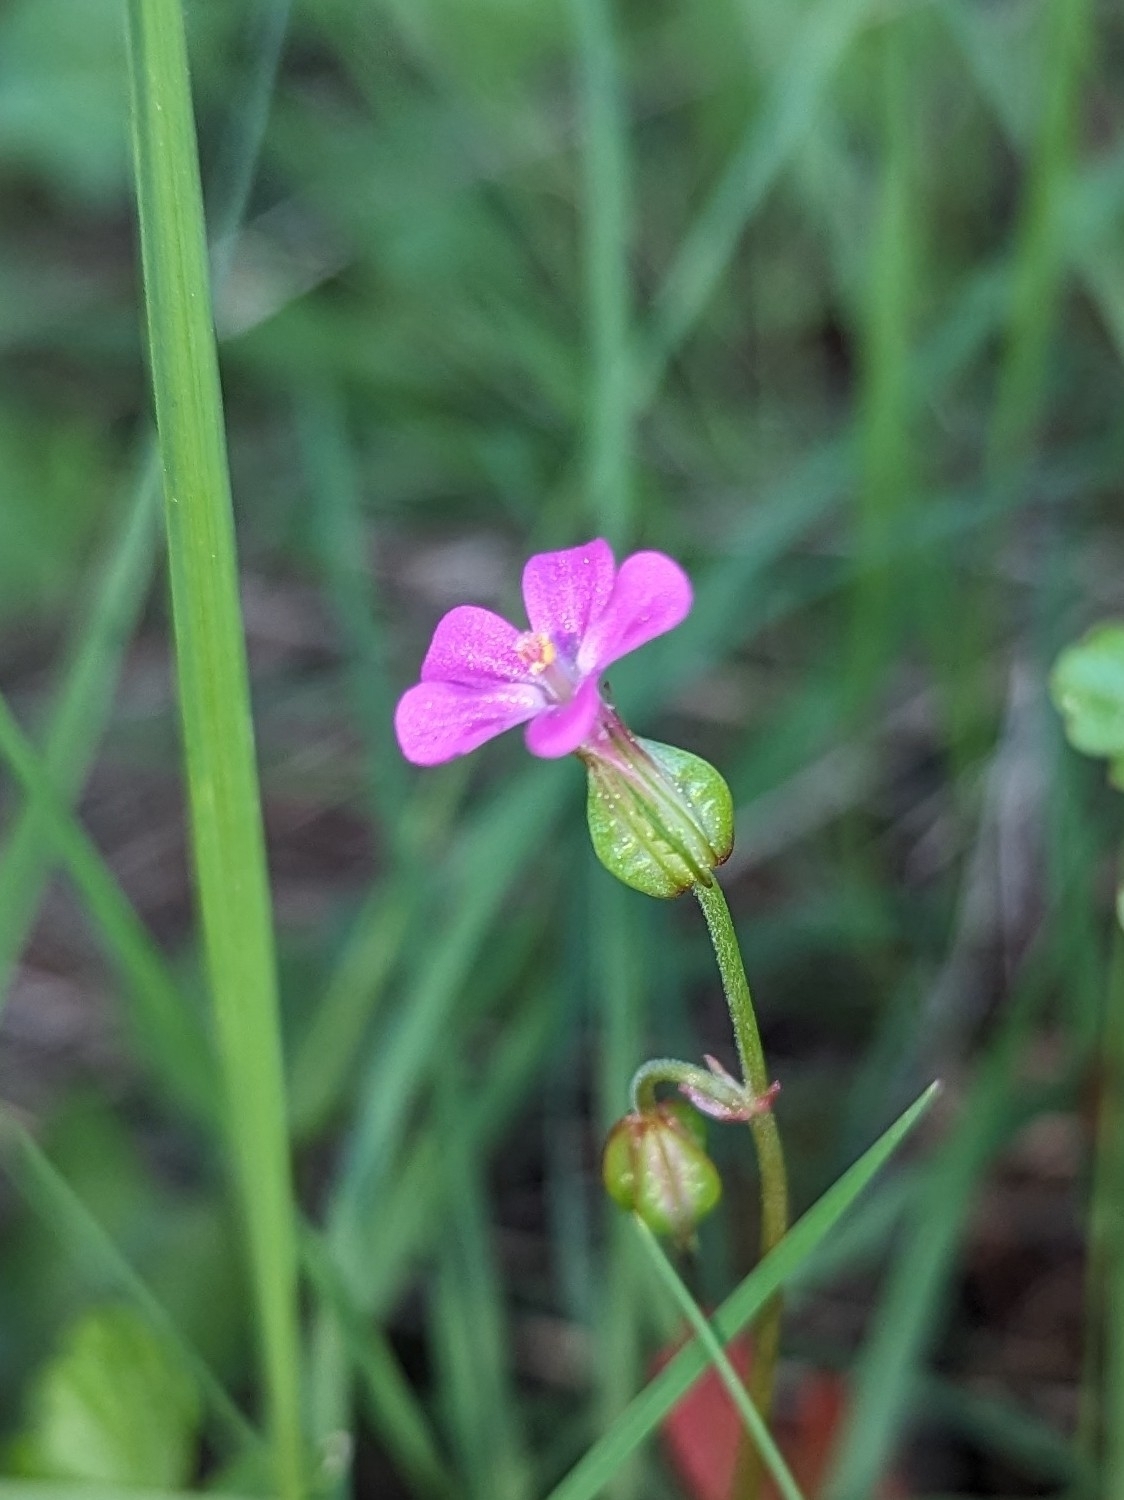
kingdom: Plantae
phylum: Tracheophyta
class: Magnoliopsida
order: Geraniales
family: Geraniaceae
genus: Geranium
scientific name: Geranium lucidum
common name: Shining crane's-bill
